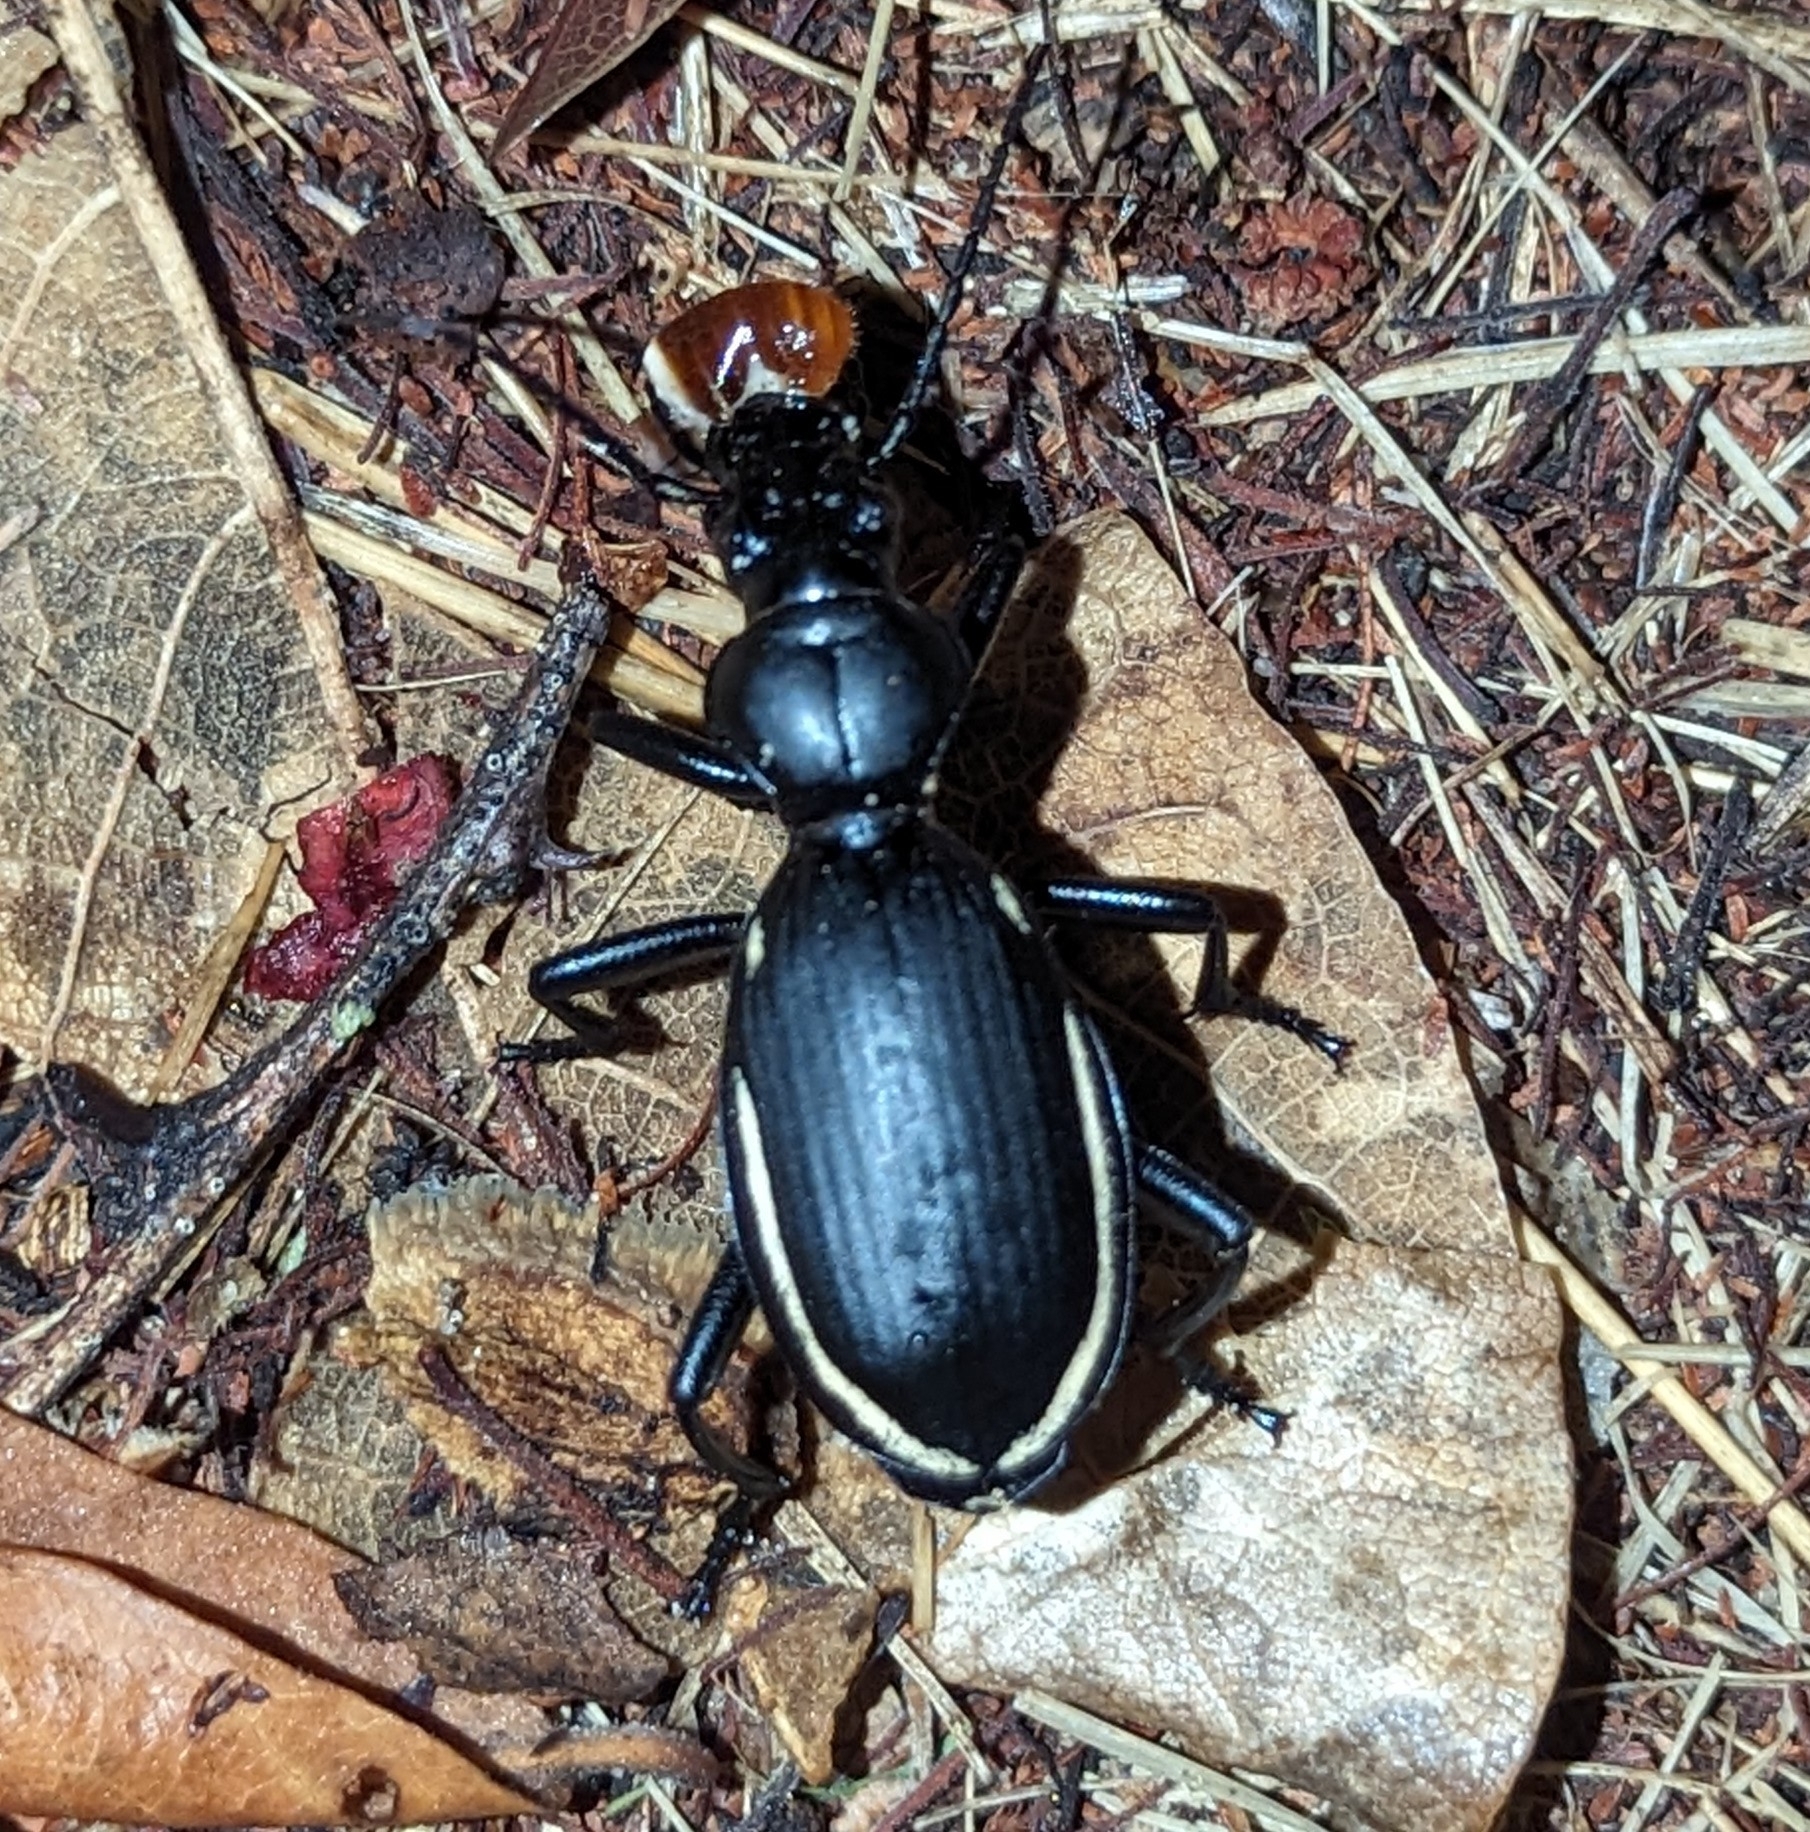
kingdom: Animalia
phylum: Arthropoda
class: Insecta
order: Coleoptera
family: Carabidae
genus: Anthia
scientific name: Anthia
